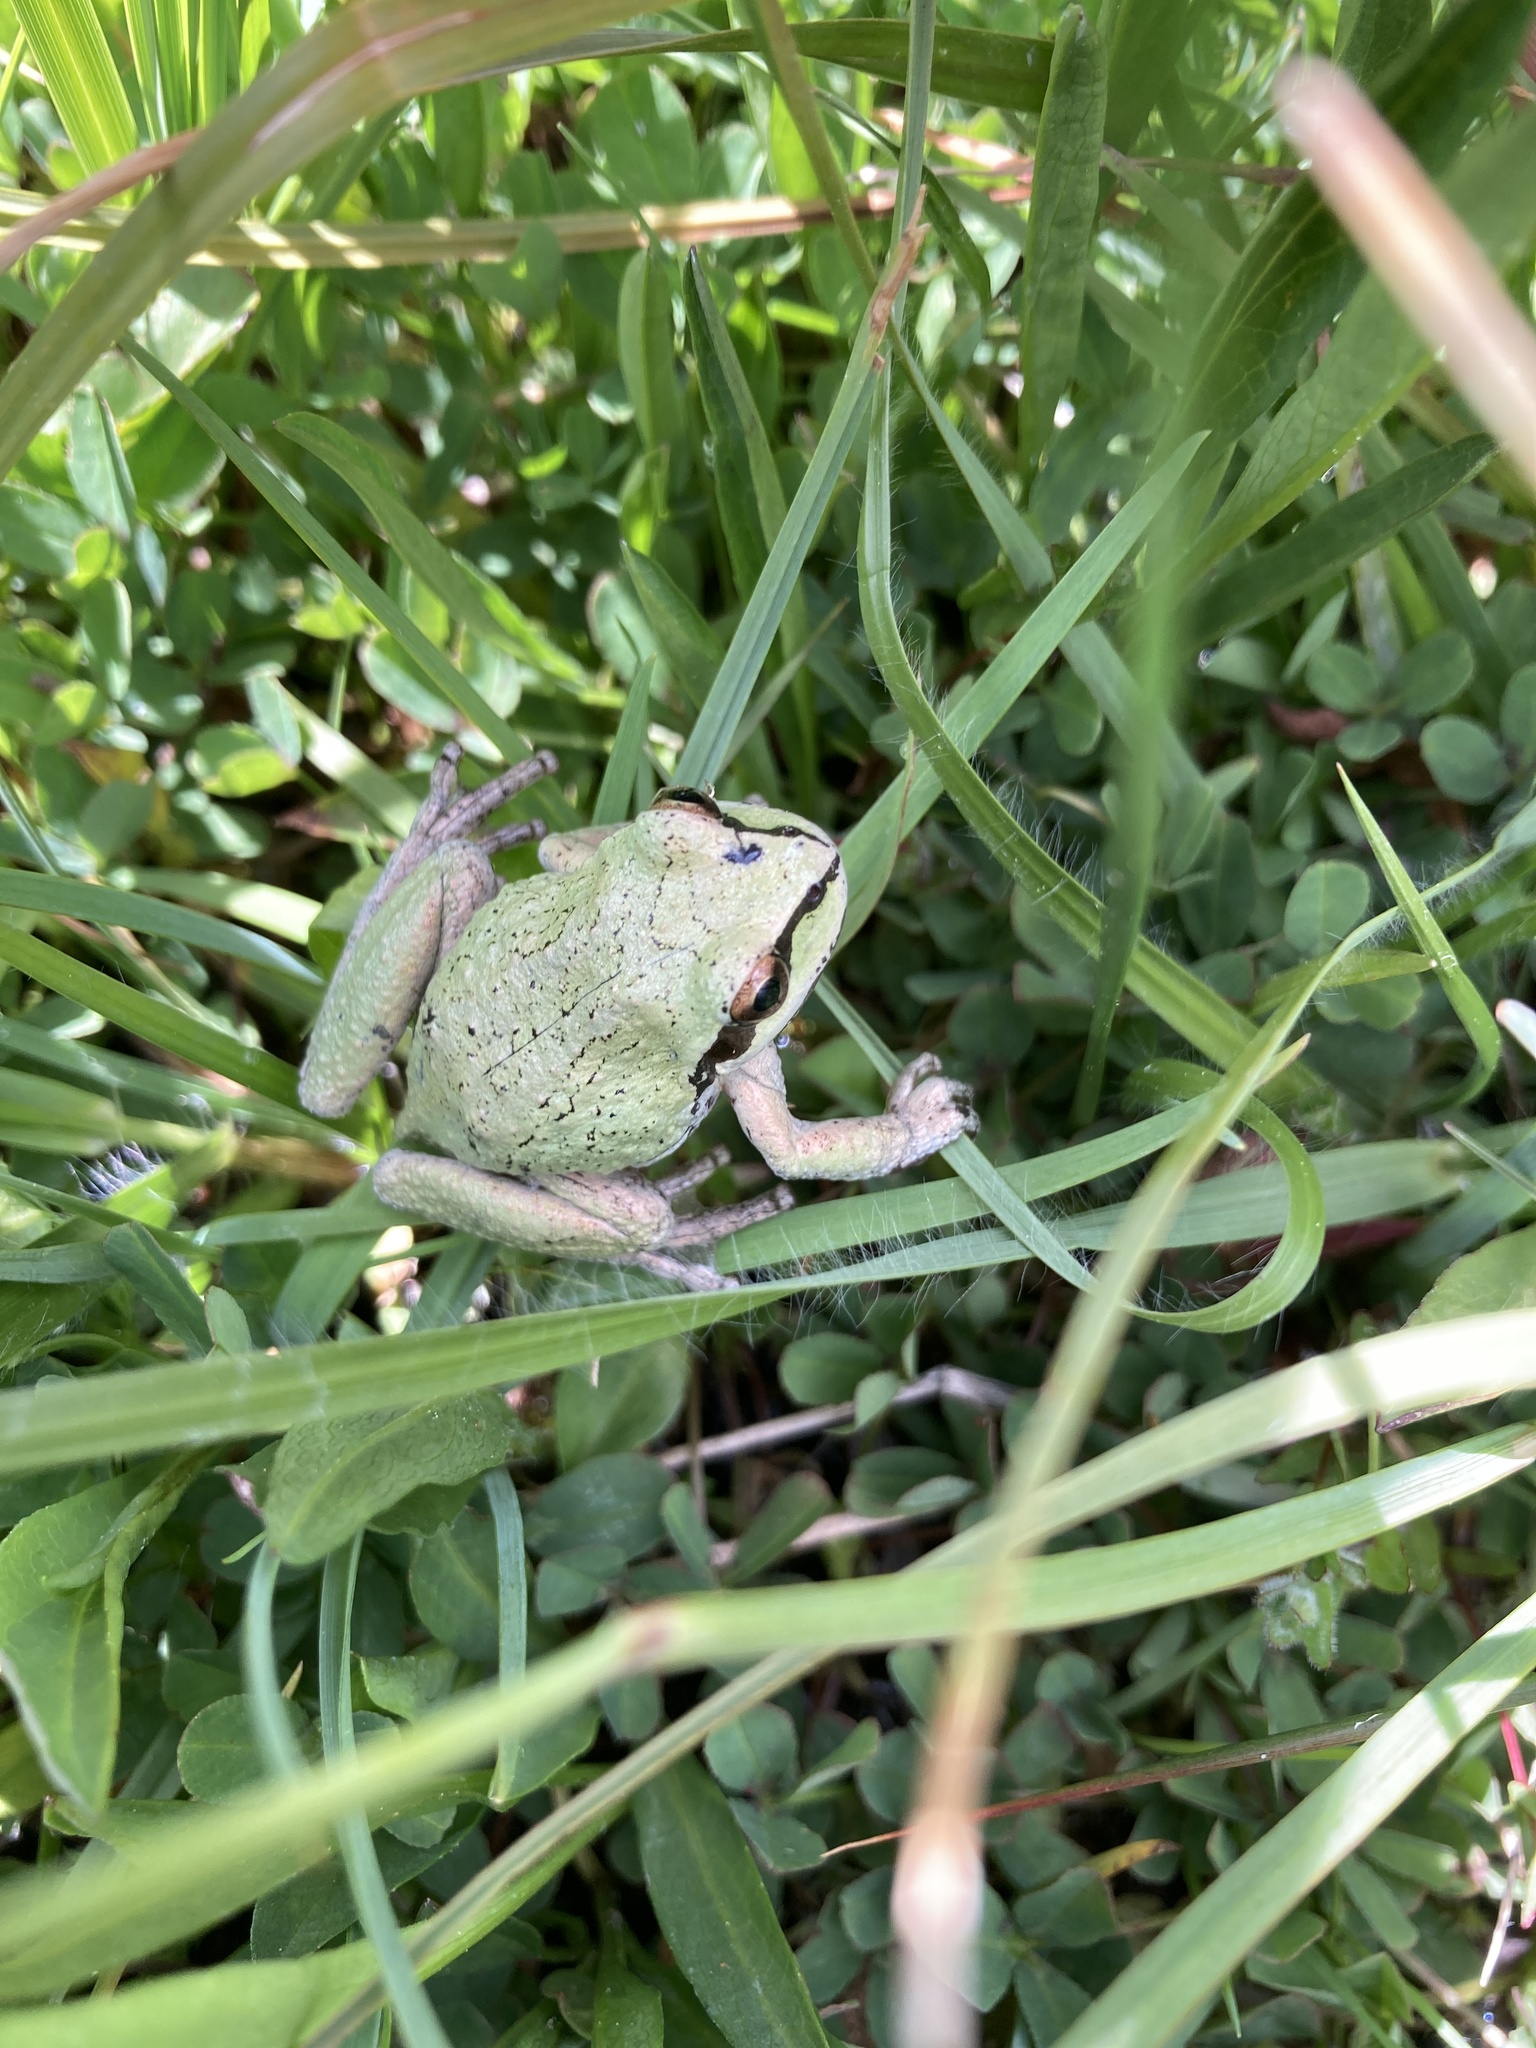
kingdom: Animalia
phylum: Chordata
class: Amphibia
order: Anura
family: Hylidae
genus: Pseudacris
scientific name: Pseudacris regilla
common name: Pacific chorus frog
